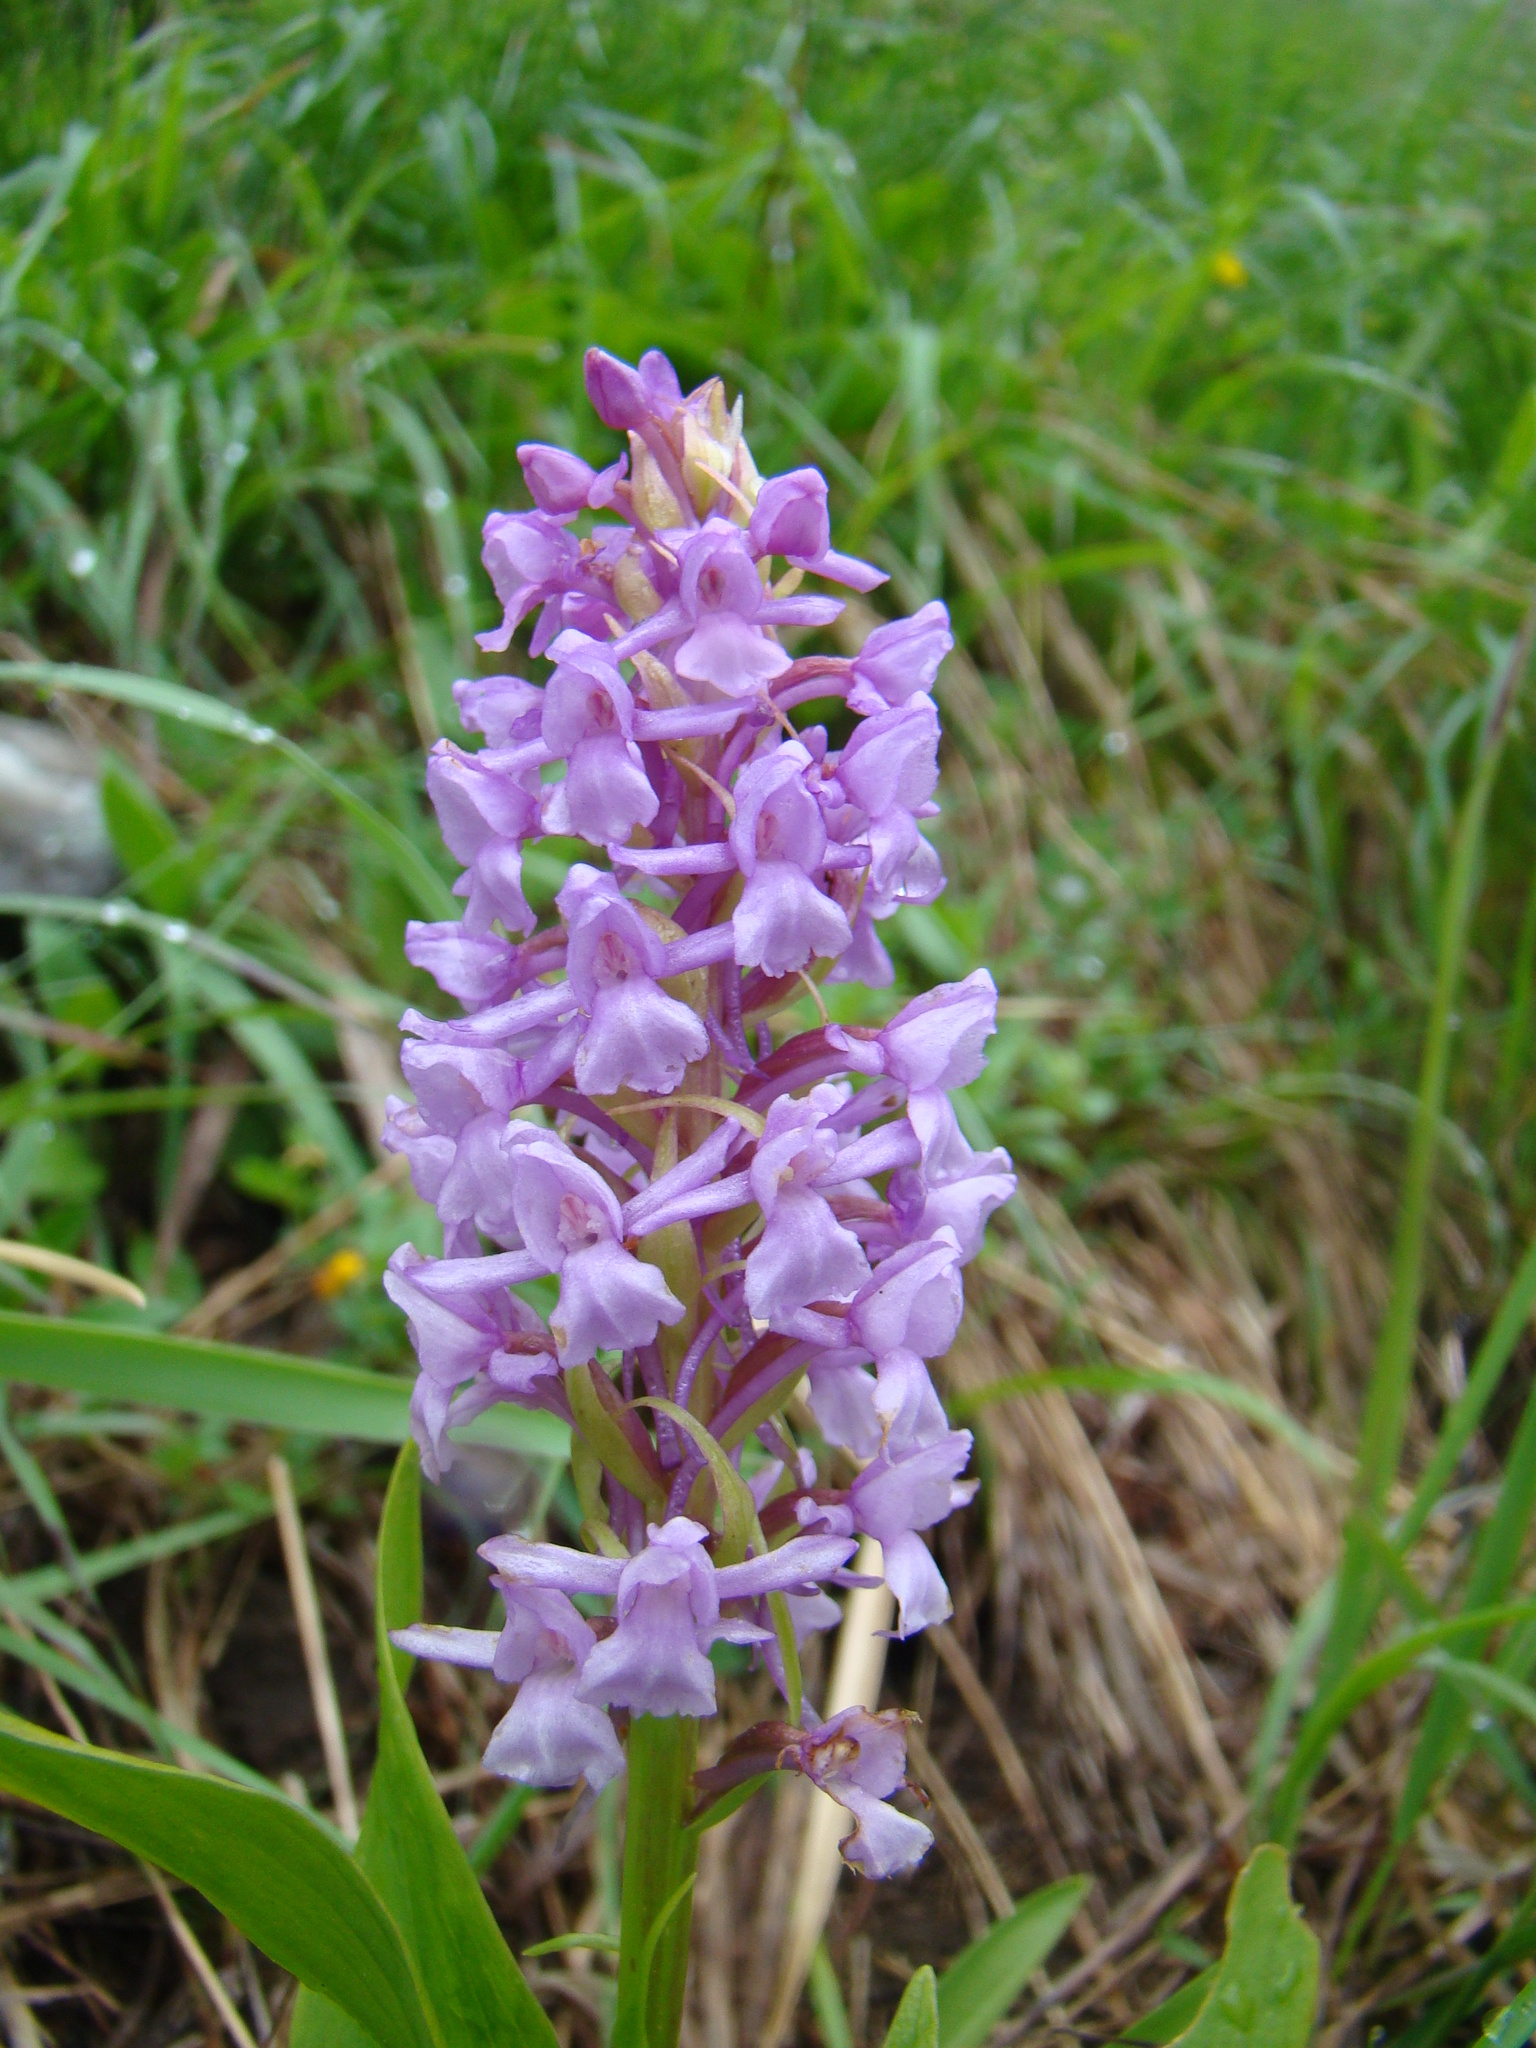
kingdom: Plantae
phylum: Tracheophyta
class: Liliopsida
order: Asparagales
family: Orchidaceae
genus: Gymnadenia
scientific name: Gymnadenia conopsea
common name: Fragrant orchid
